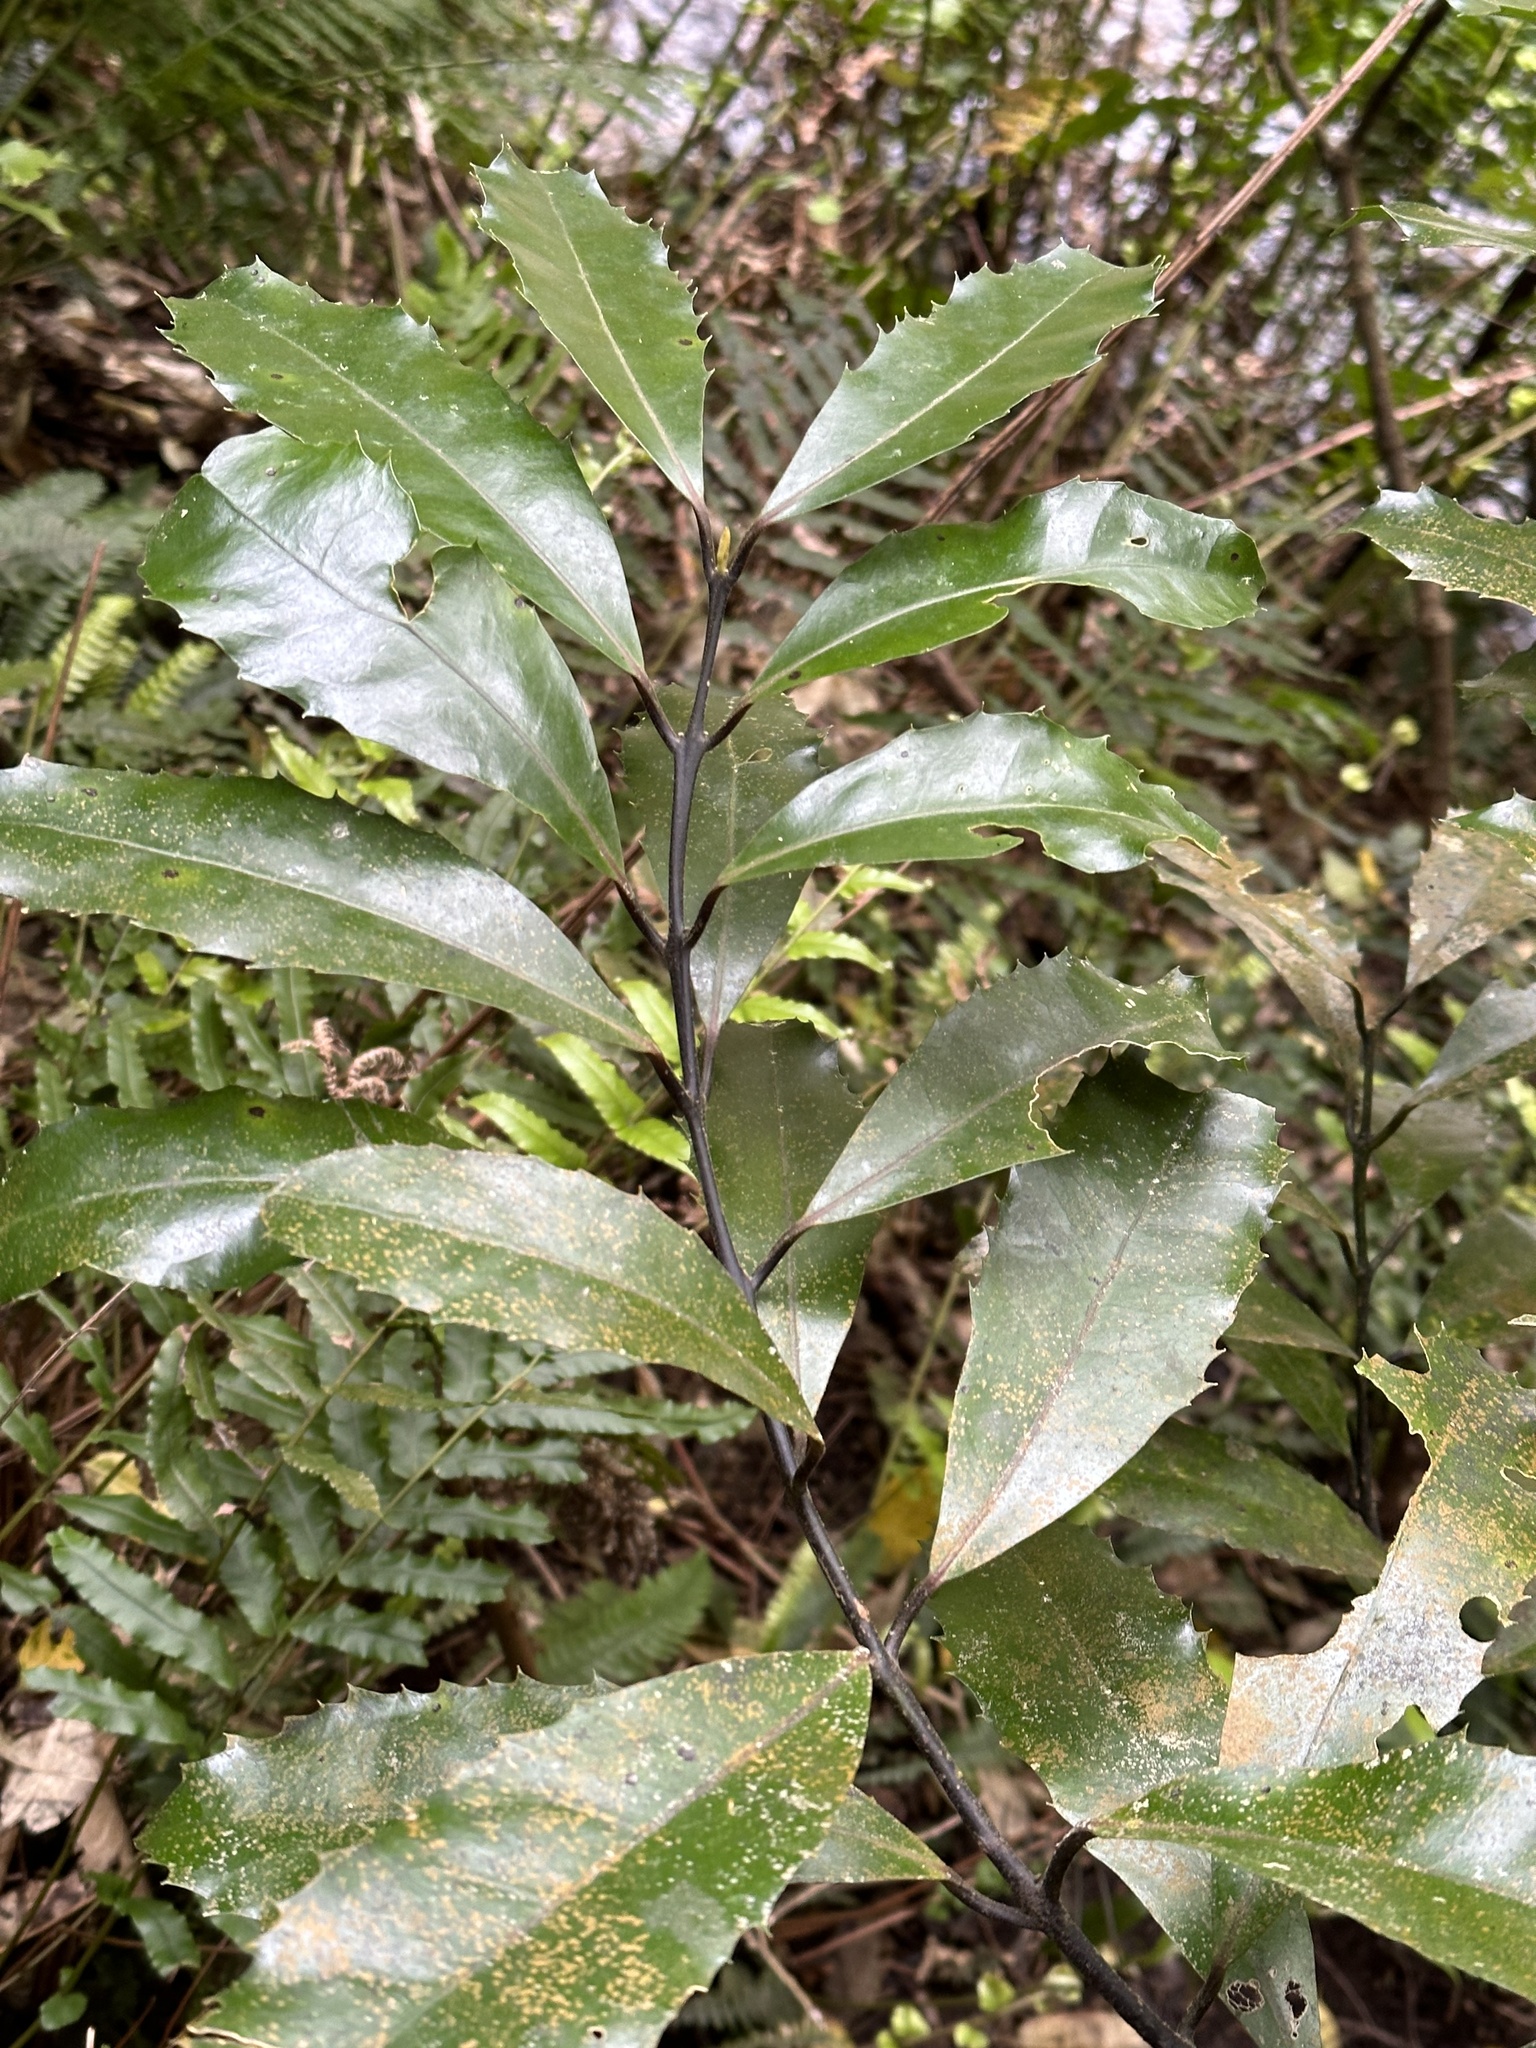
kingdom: Plantae
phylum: Tracheophyta
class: Magnoliopsida
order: Laurales
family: Monimiaceae
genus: Hedycarya
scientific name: Hedycarya arborea
